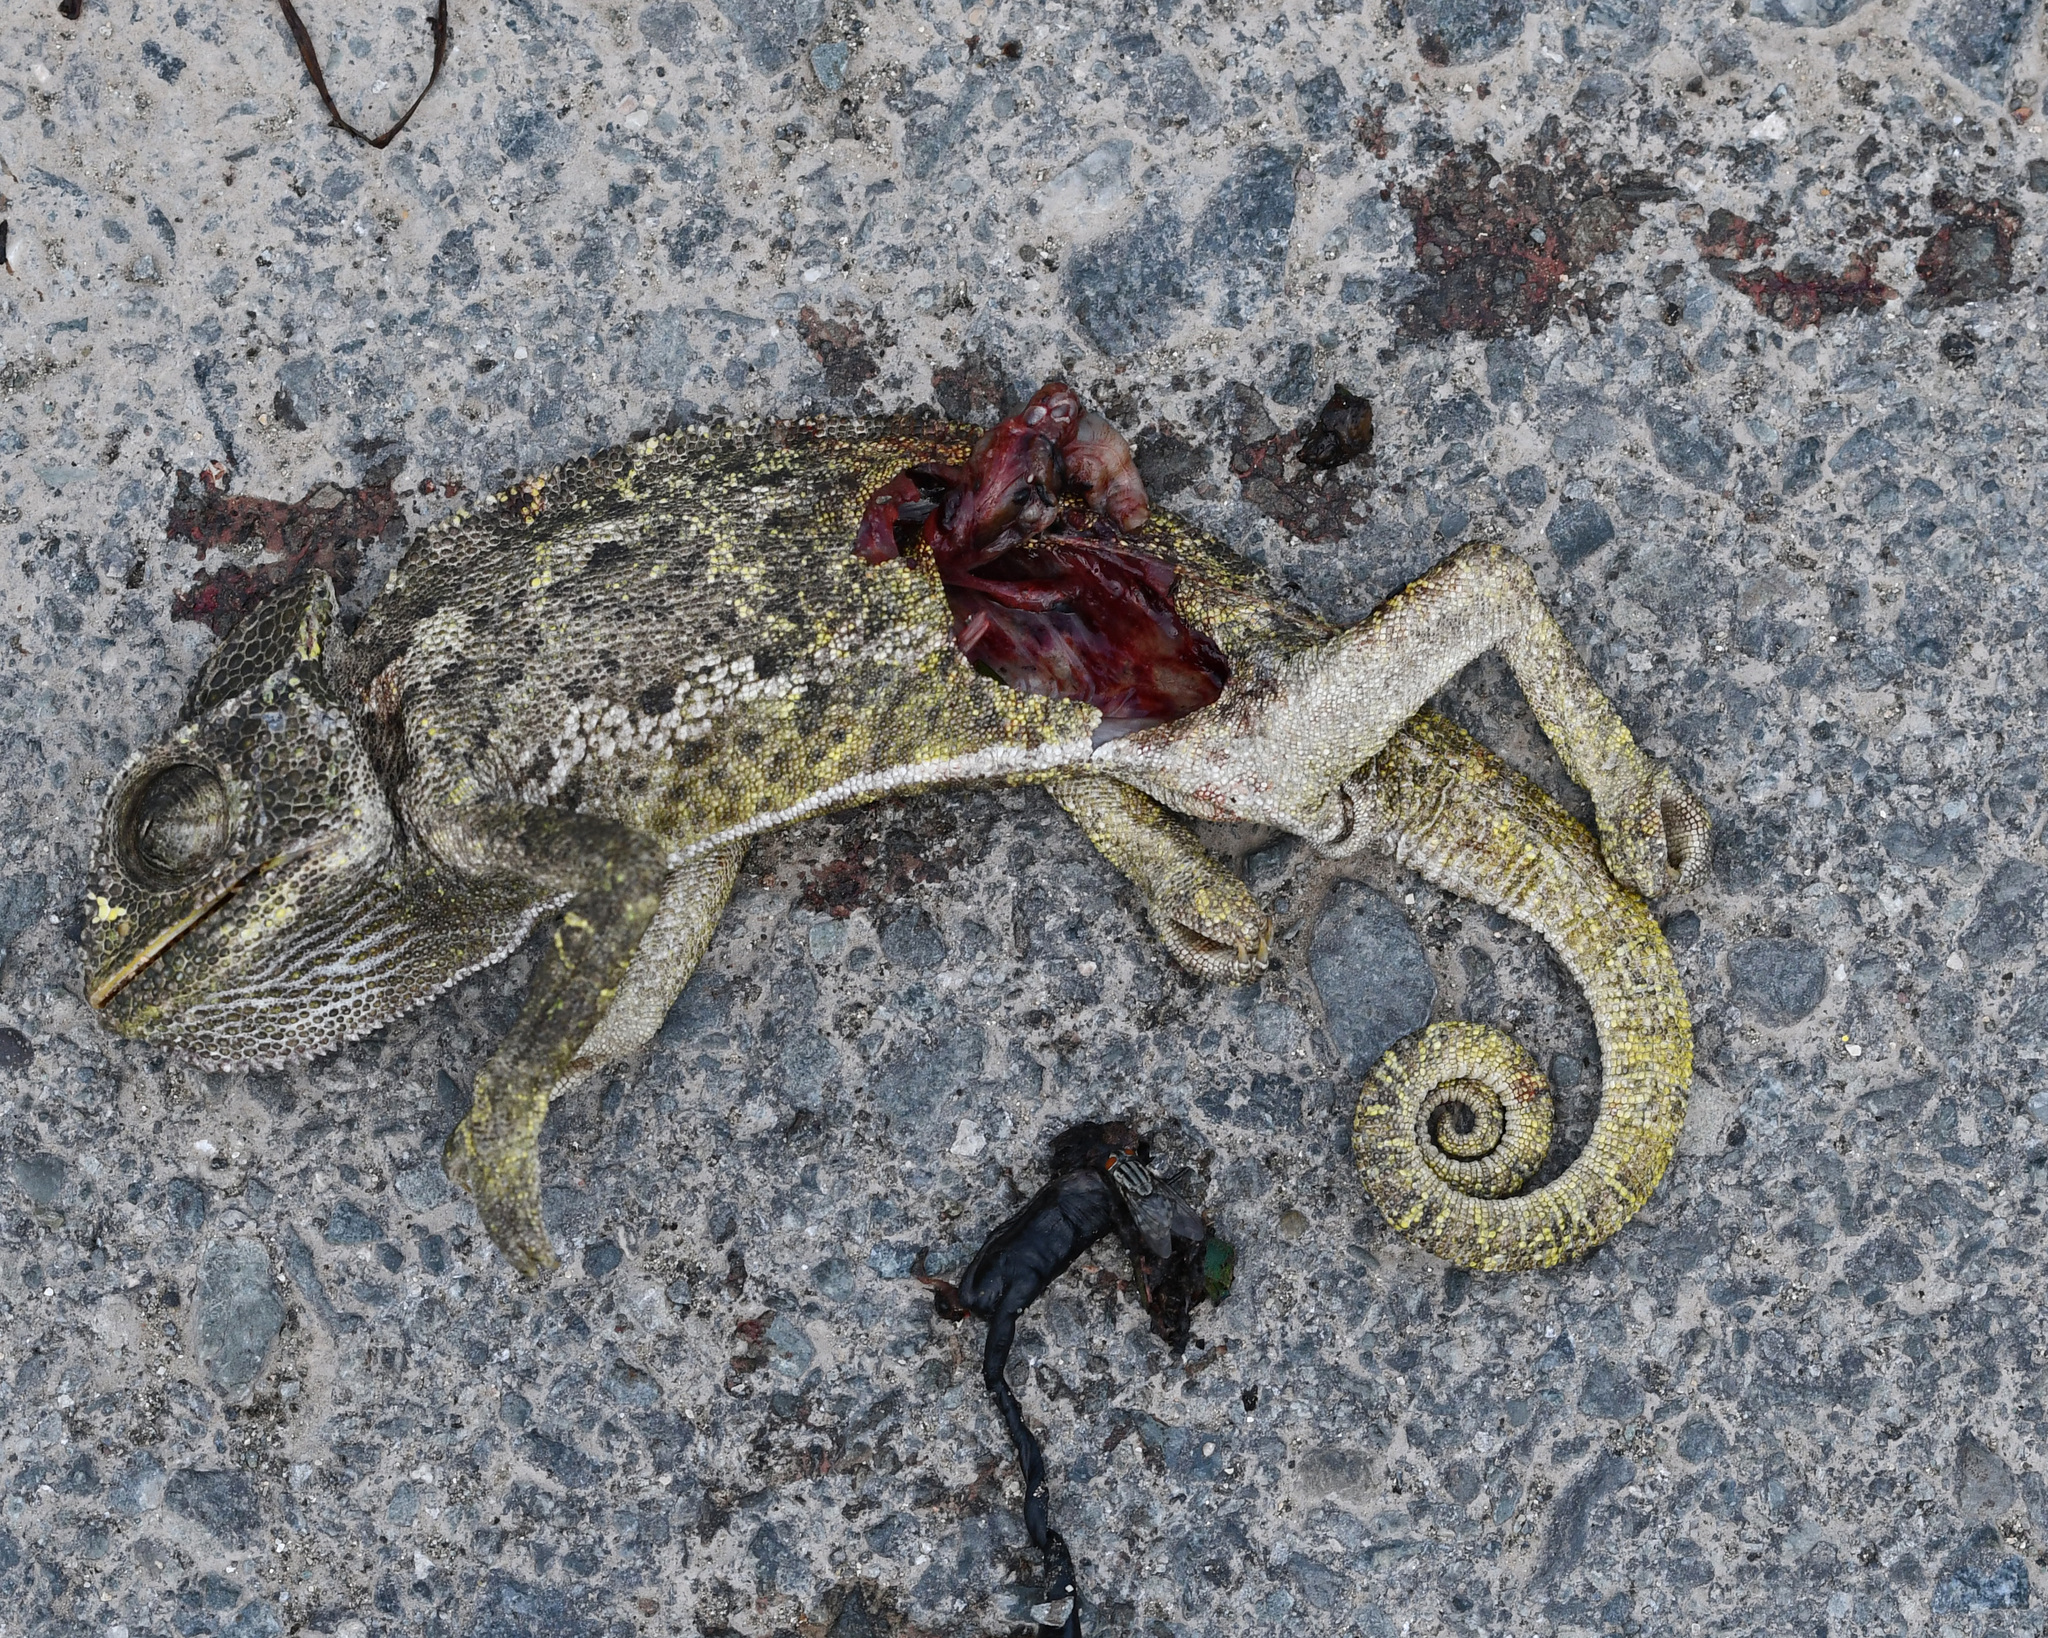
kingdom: Animalia
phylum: Chordata
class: Squamata
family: Chamaeleonidae
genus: Chamaeleo
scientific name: Chamaeleo chamaeleon
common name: Mediterranean chameleon
